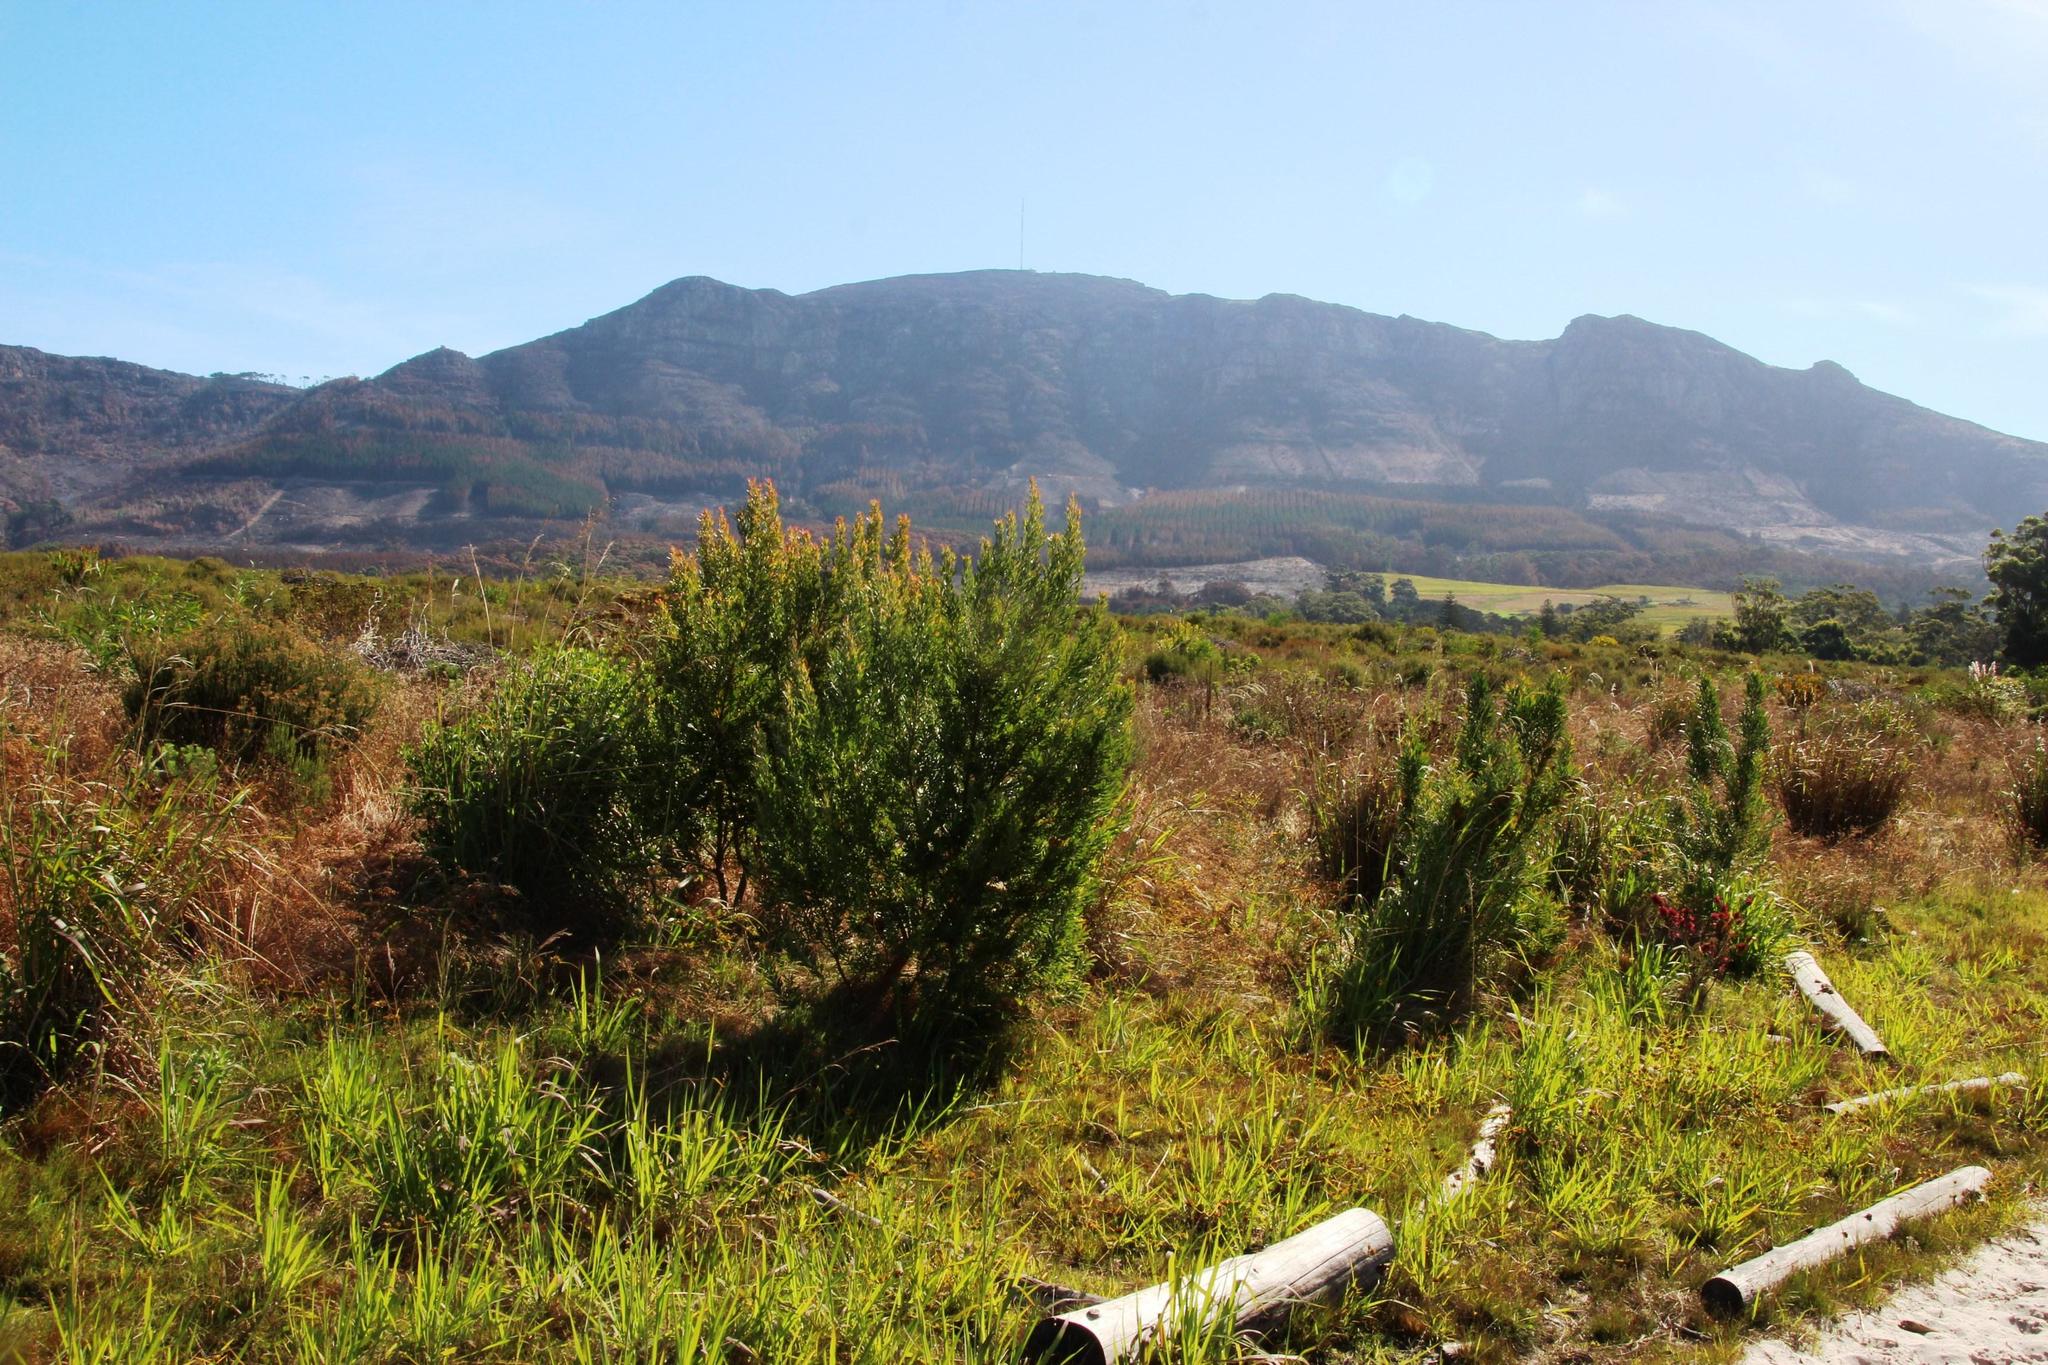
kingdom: Plantae
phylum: Tracheophyta
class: Magnoliopsida
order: Proteales
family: Proteaceae
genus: Leucadendron
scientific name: Leucadendron macowanii
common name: Acacia-leaf conebush
